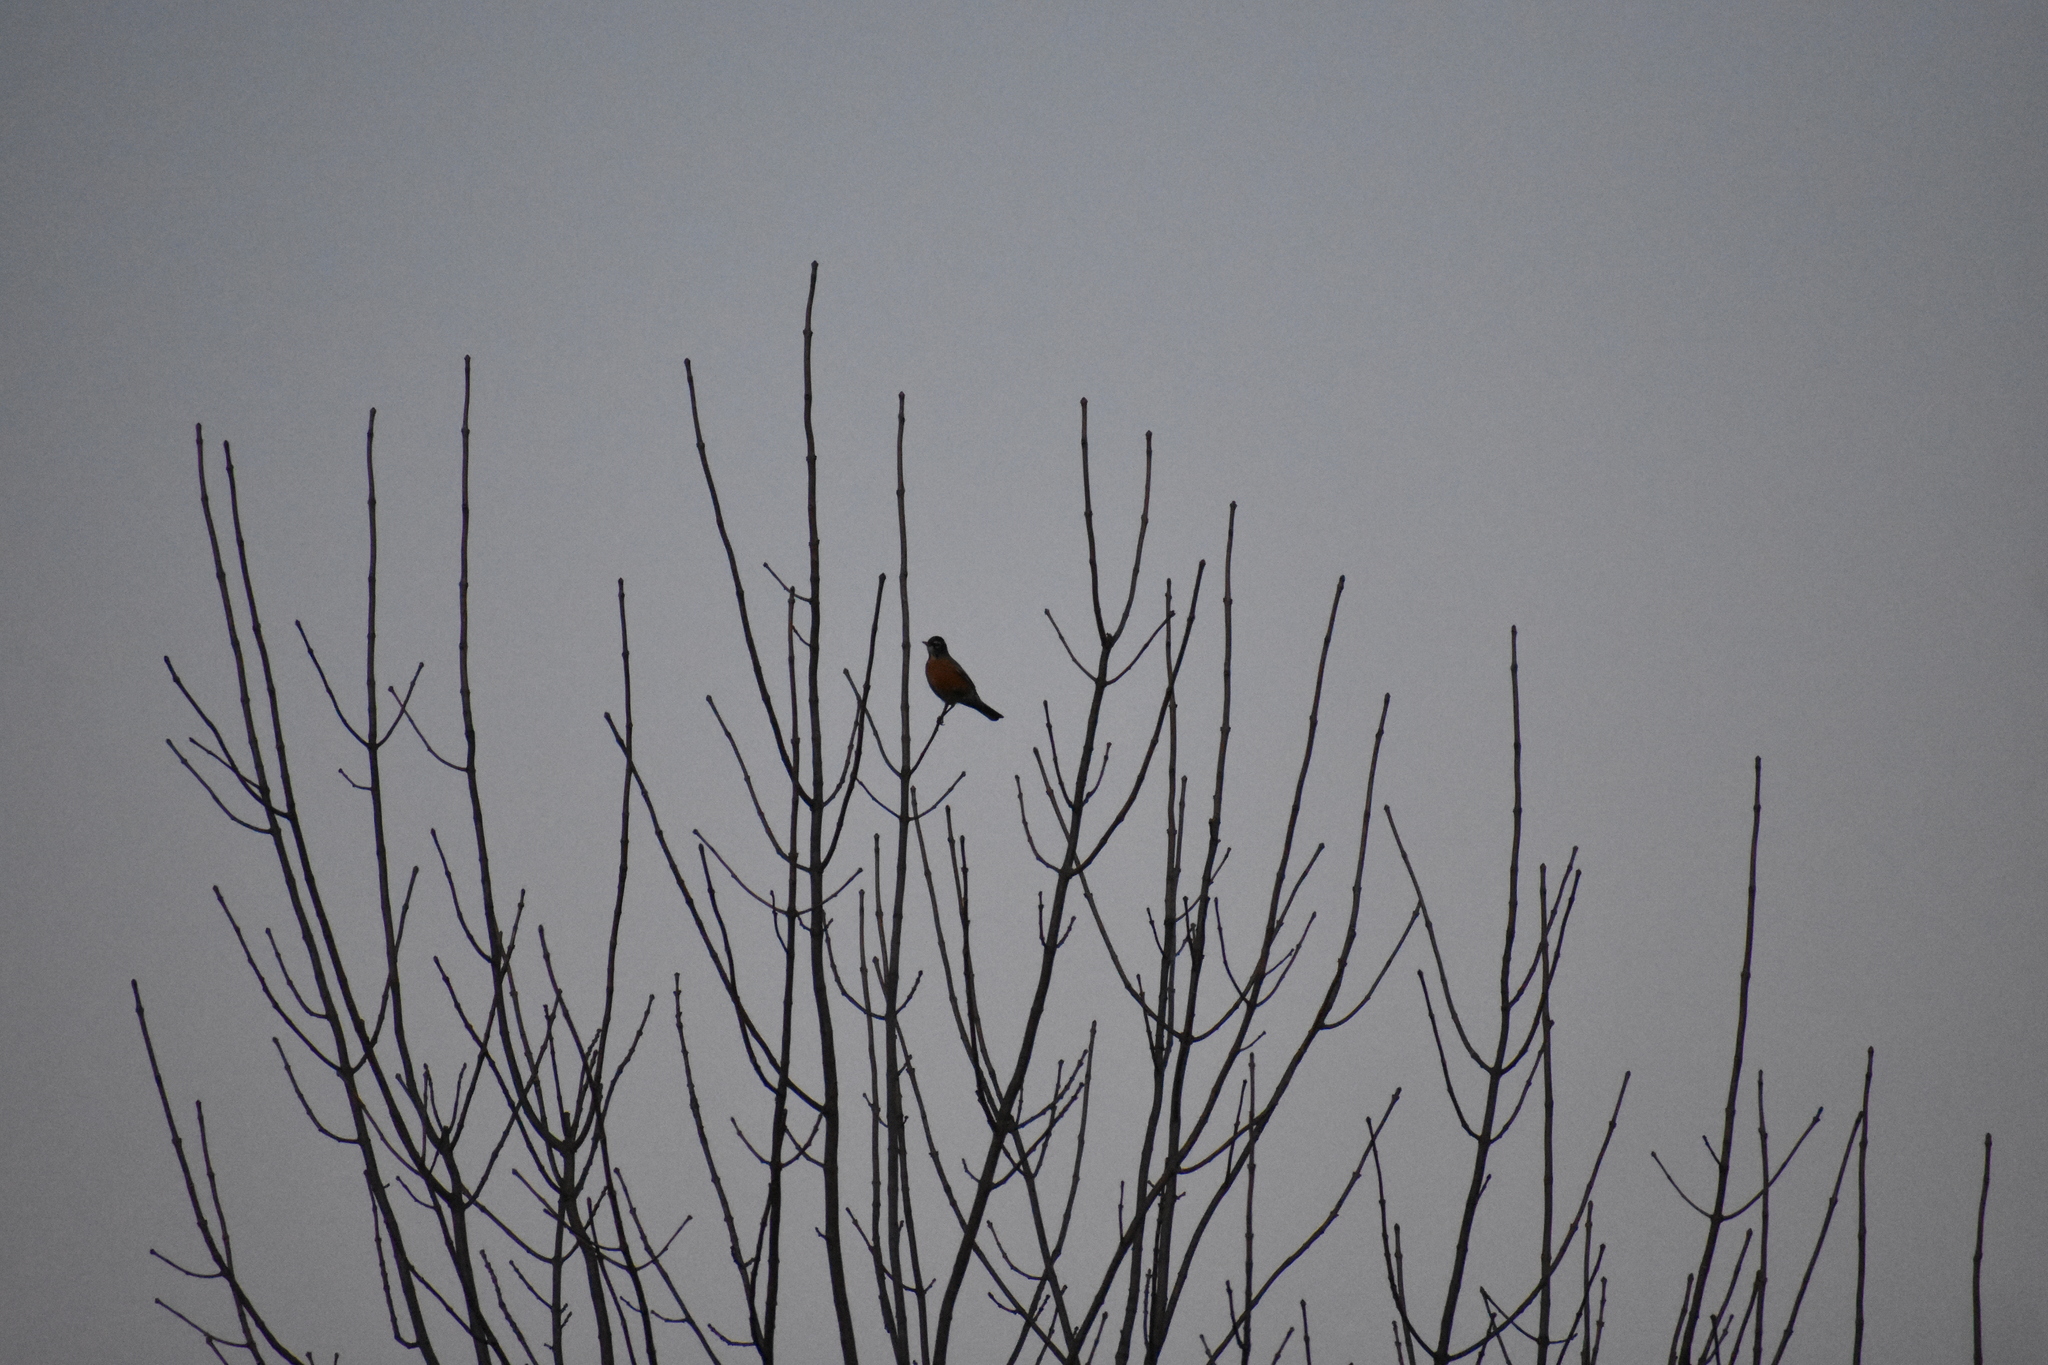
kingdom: Animalia
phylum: Chordata
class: Aves
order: Passeriformes
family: Turdidae
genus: Turdus
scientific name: Turdus migratorius
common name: American robin
